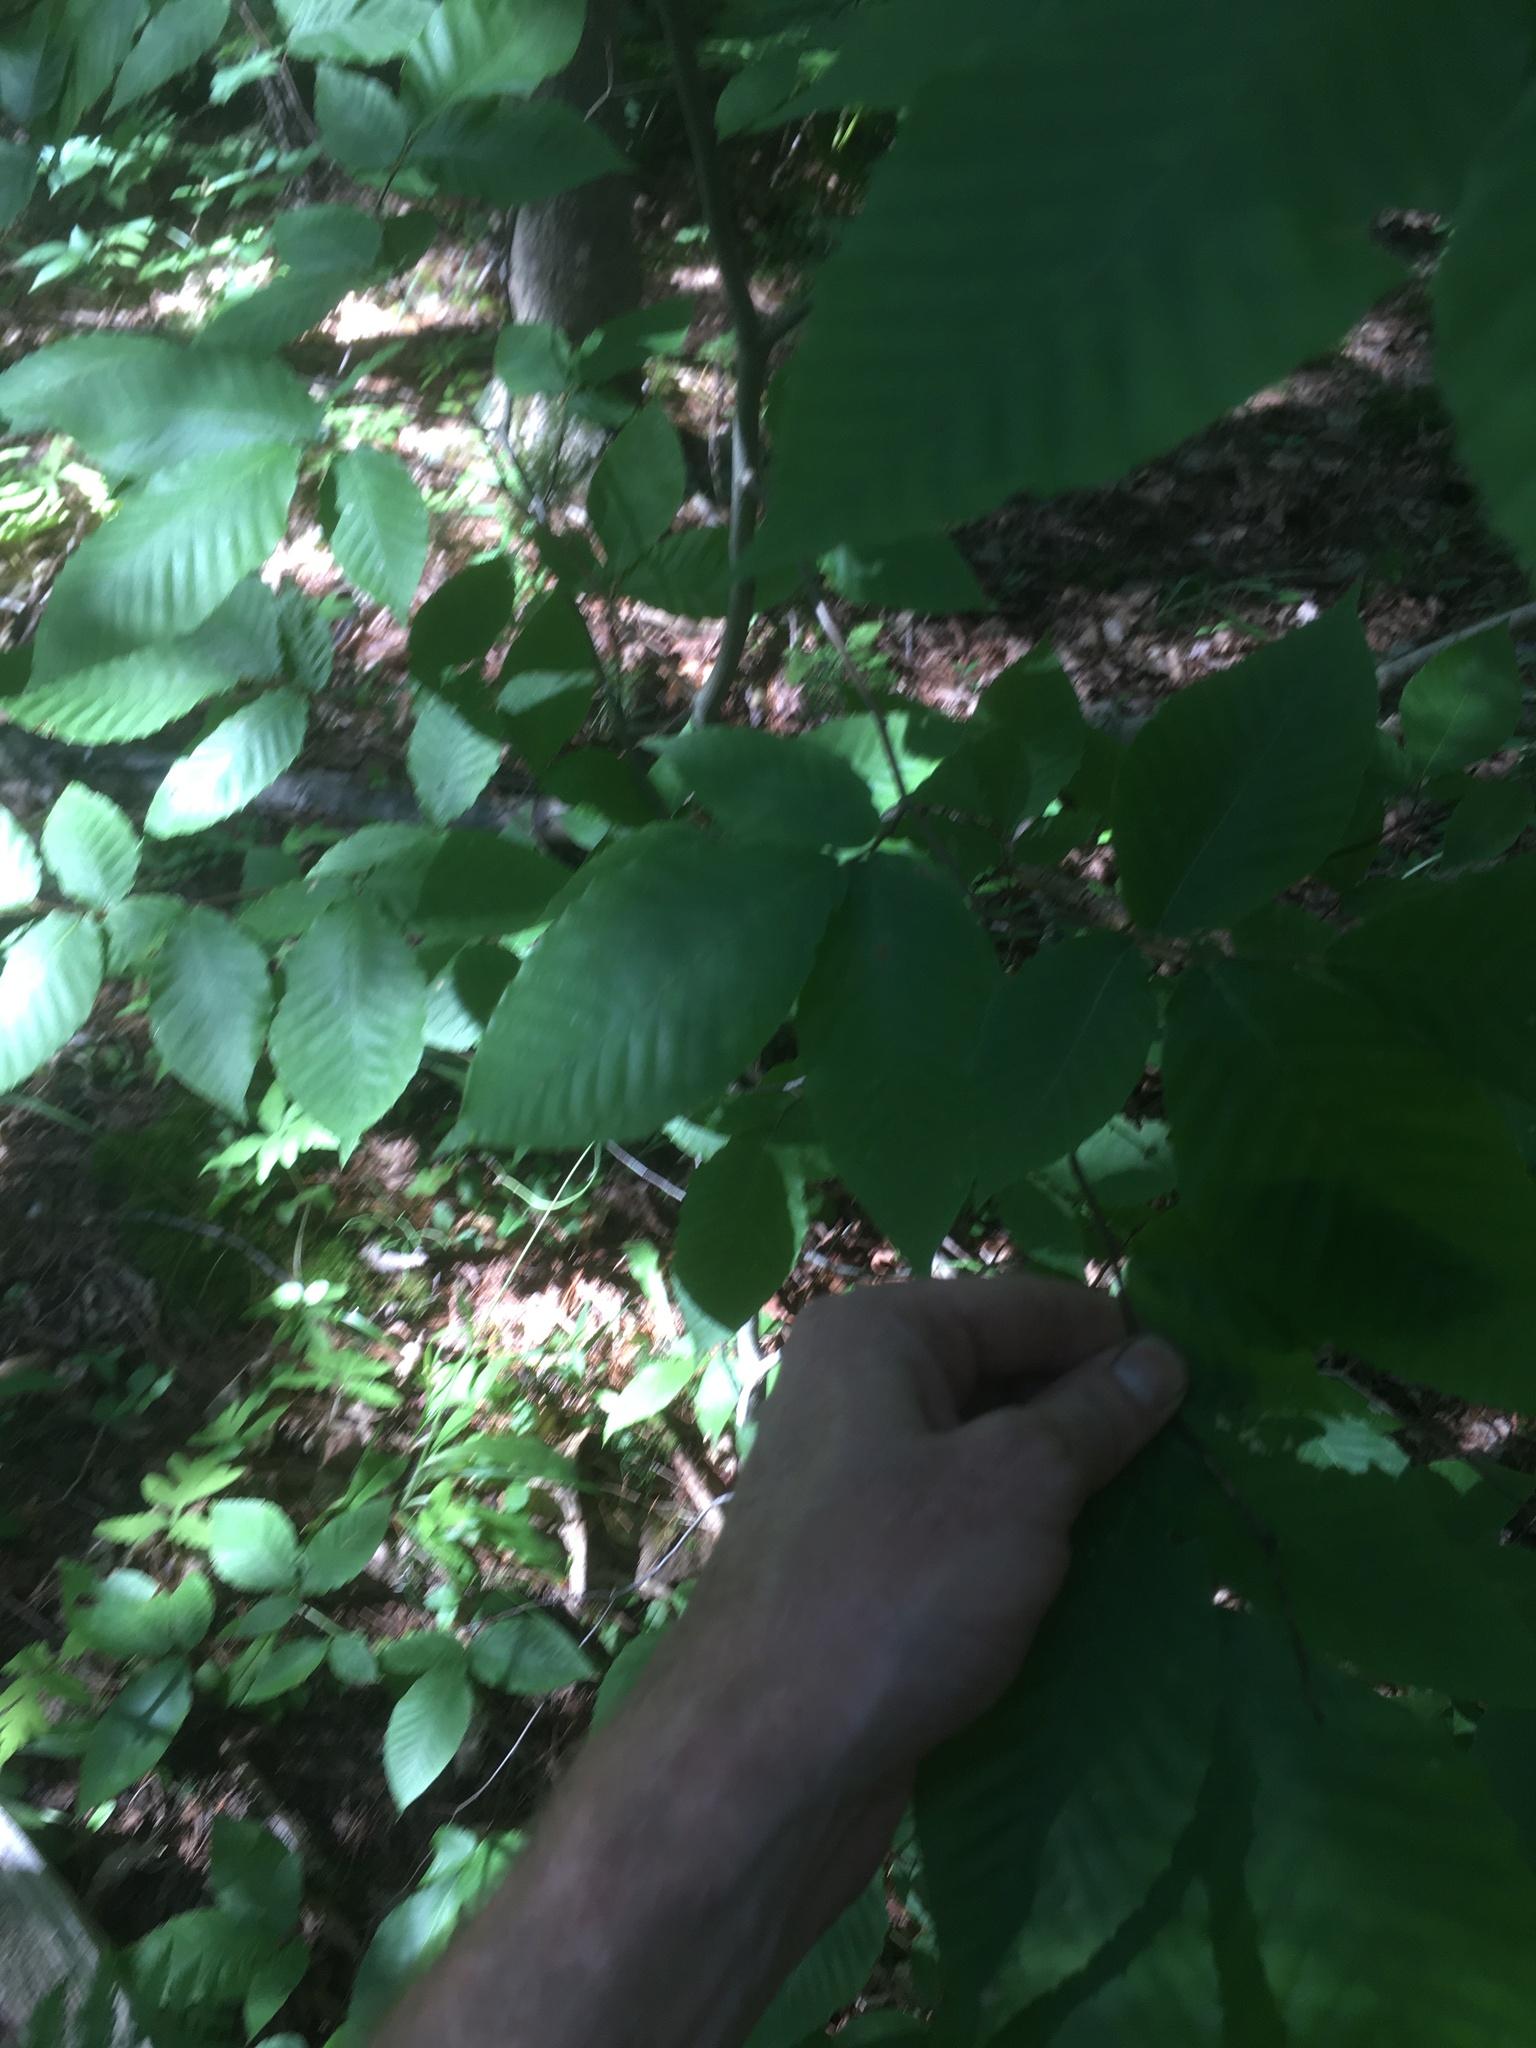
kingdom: Plantae
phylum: Tracheophyta
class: Magnoliopsida
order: Fagales
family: Fagaceae
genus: Fagus
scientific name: Fagus grandifolia
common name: American beech
